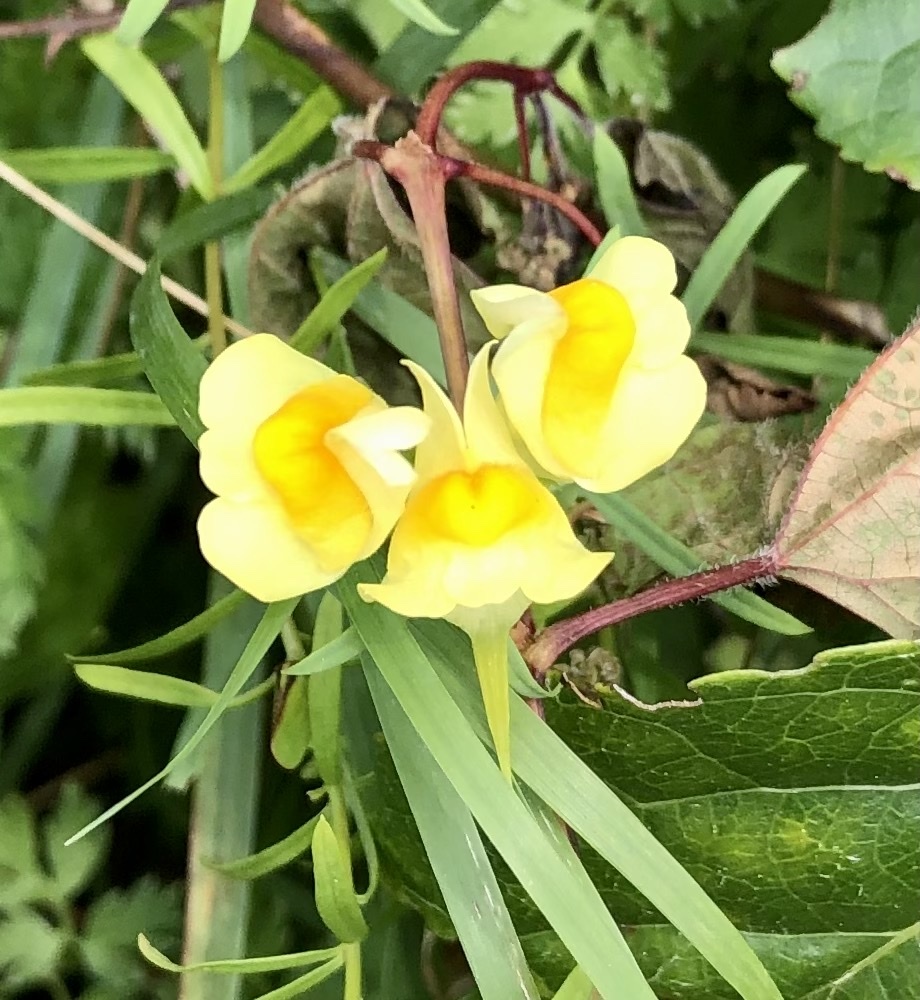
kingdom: Plantae
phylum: Tracheophyta
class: Magnoliopsida
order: Lamiales
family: Plantaginaceae
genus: Linaria
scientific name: Linaria vulgaris
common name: Butter and eggs
